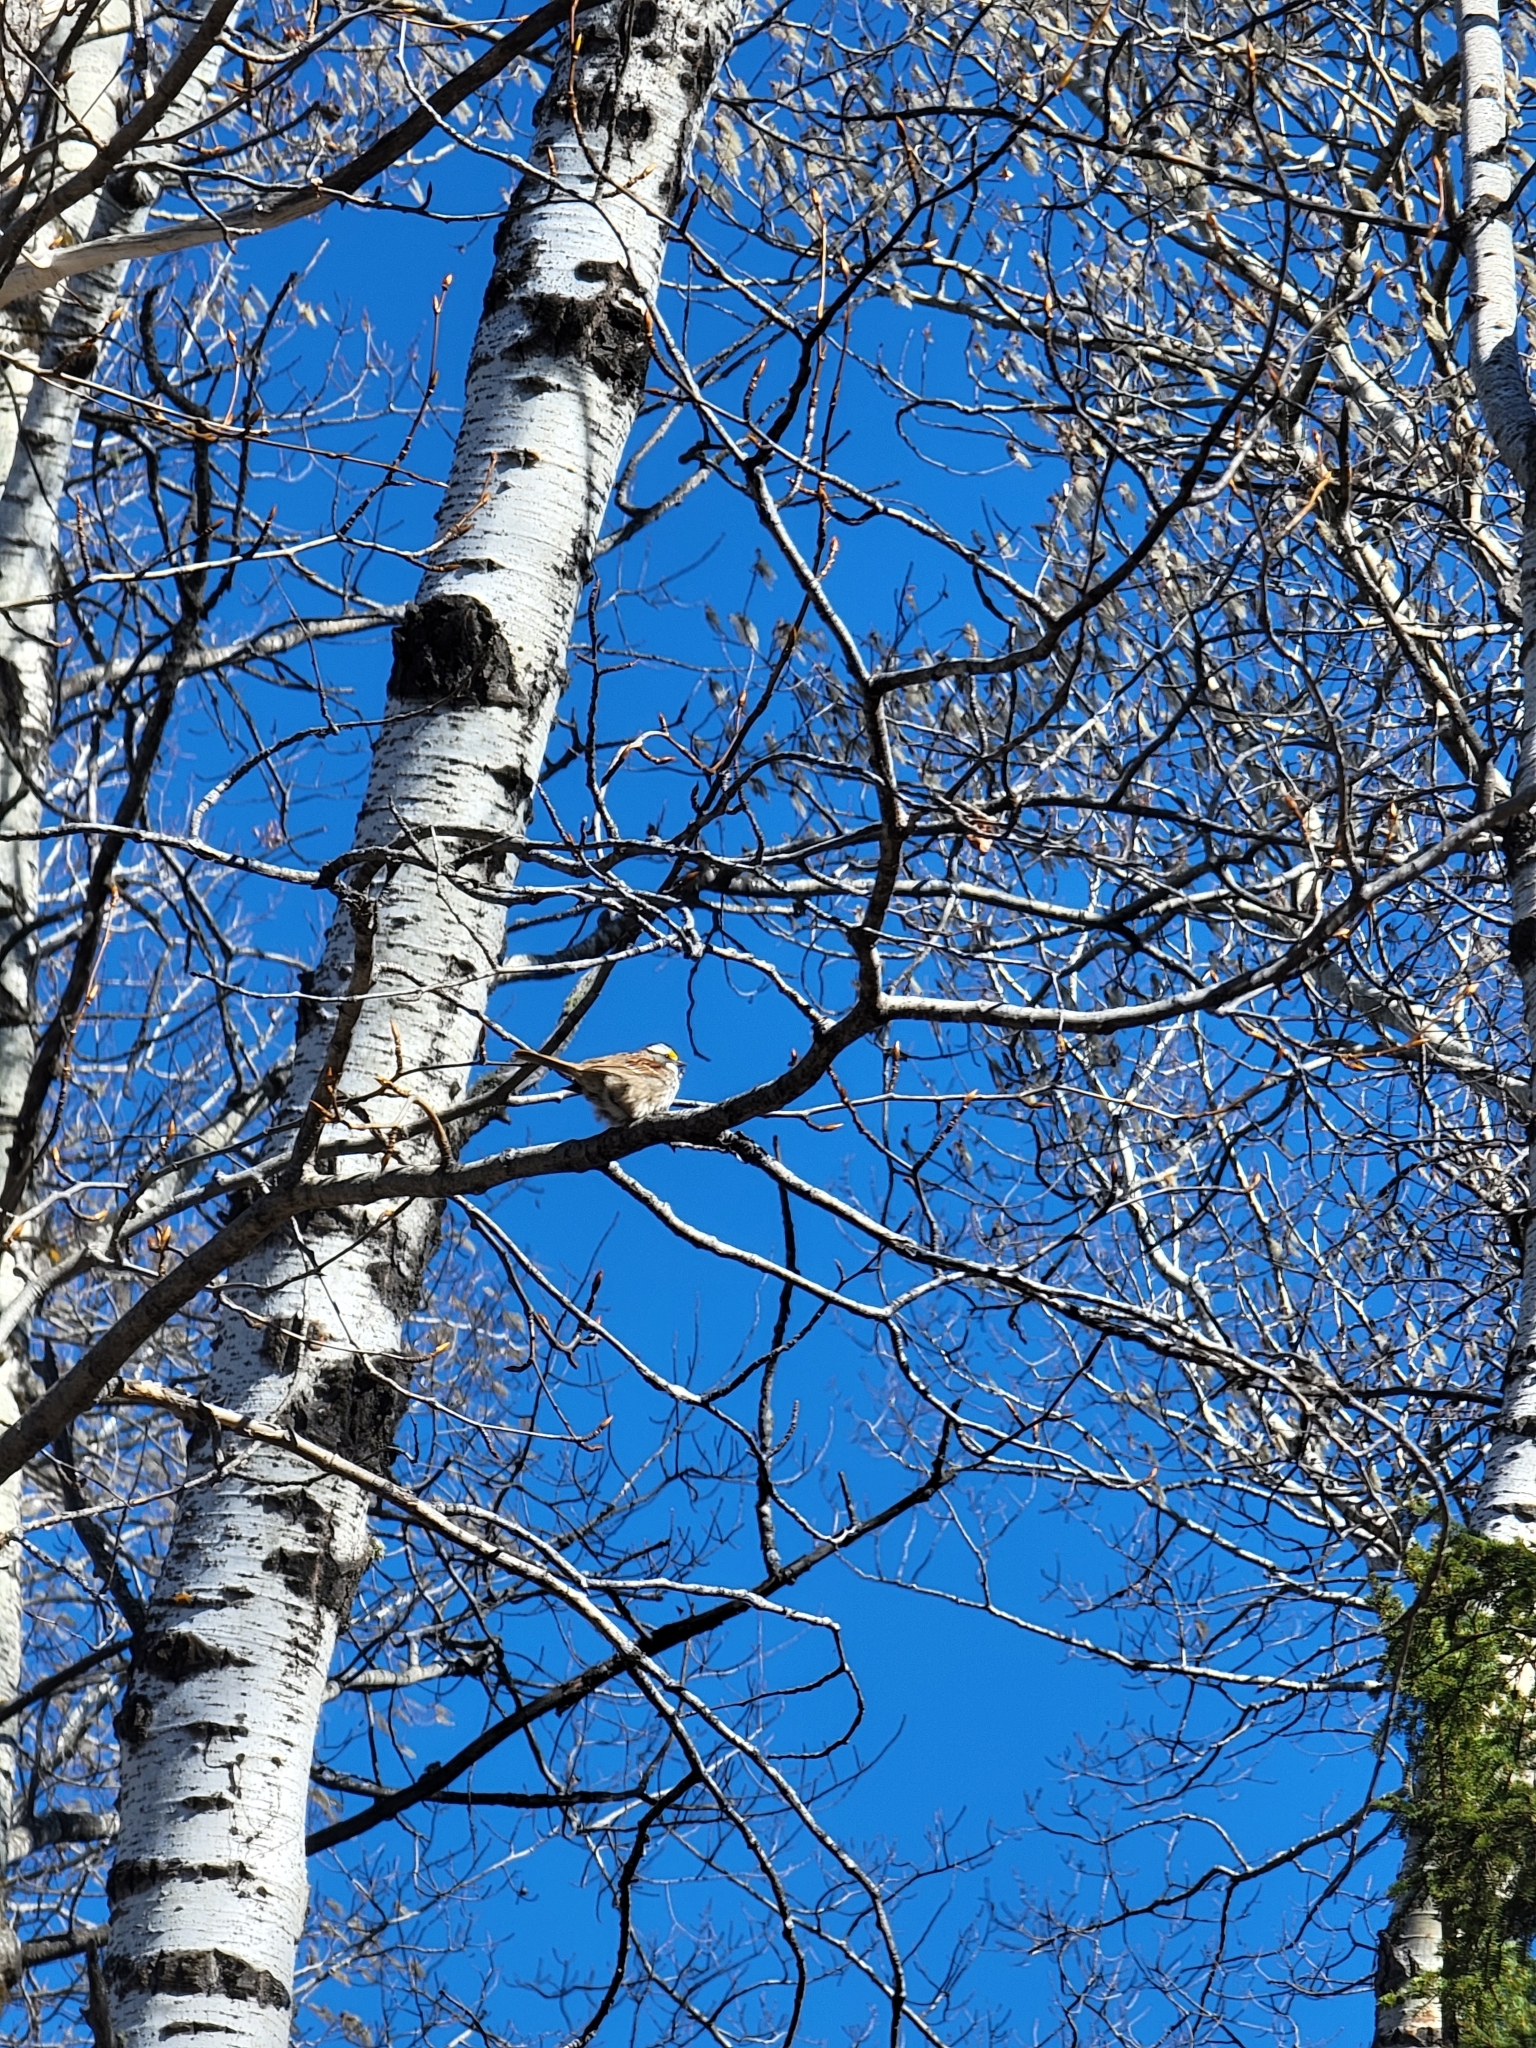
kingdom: Animalia
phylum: Chordata
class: Aves
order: Passeriformes
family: Passerellidae
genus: Zonotrichia
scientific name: Zonotrichia albicollis
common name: White-throated sparrow
